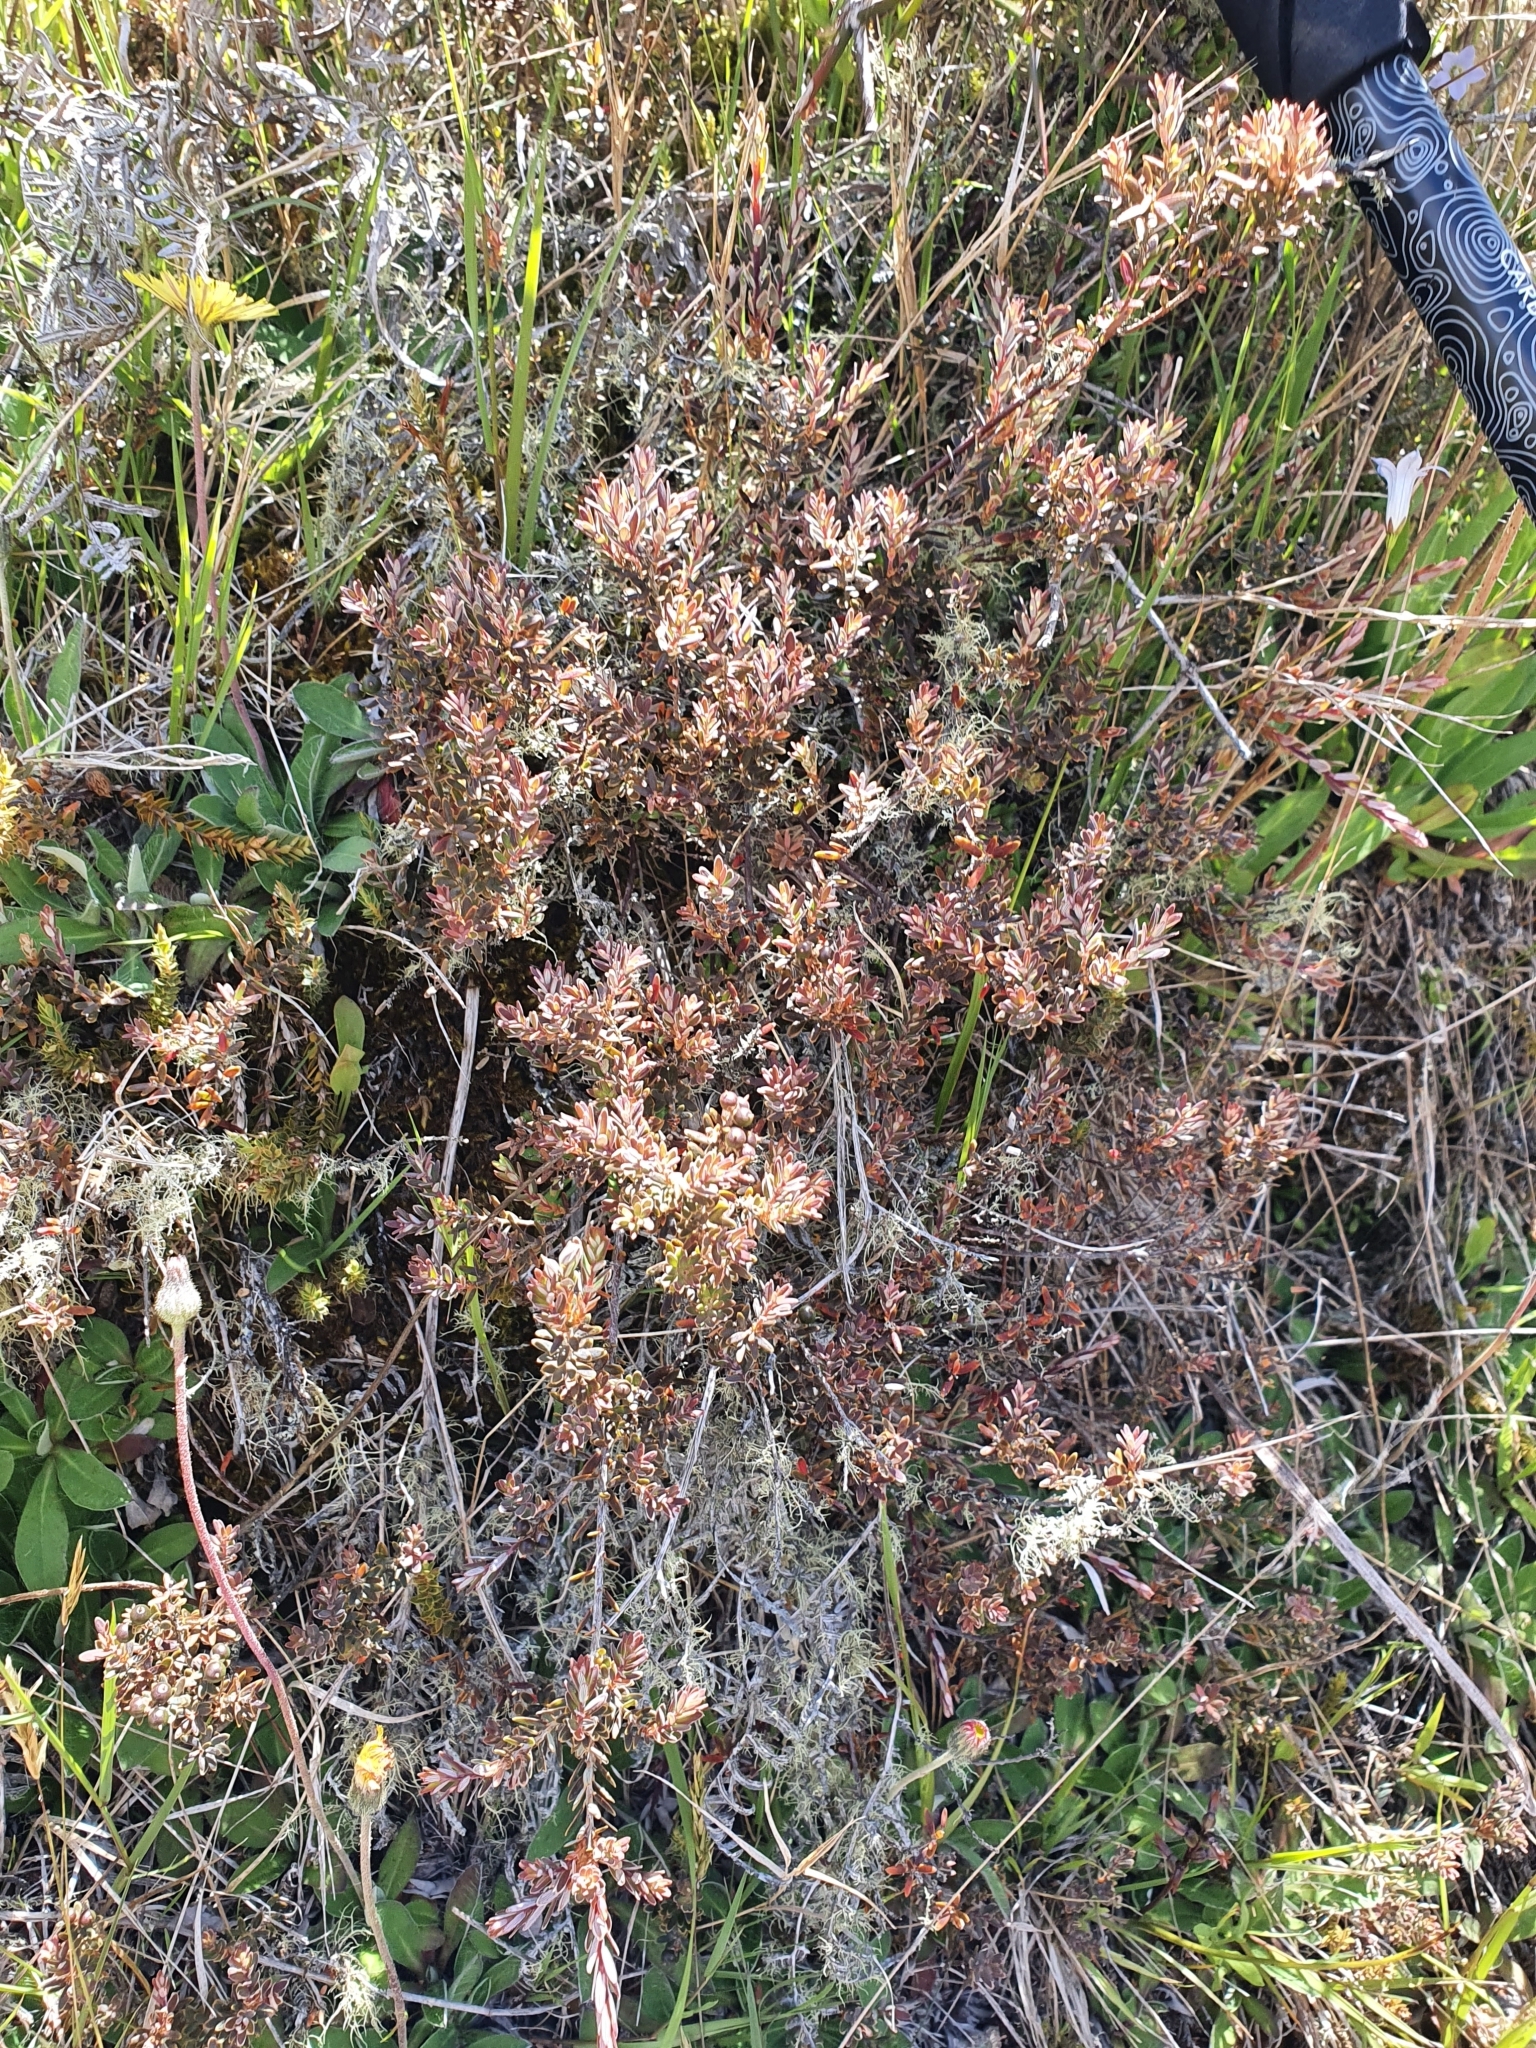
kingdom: Plantae
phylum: Tracheophyta
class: Magnoliopsida
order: Ericales
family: Ericaceae
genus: Acrothamnus
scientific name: Acrothamnus colensoi
